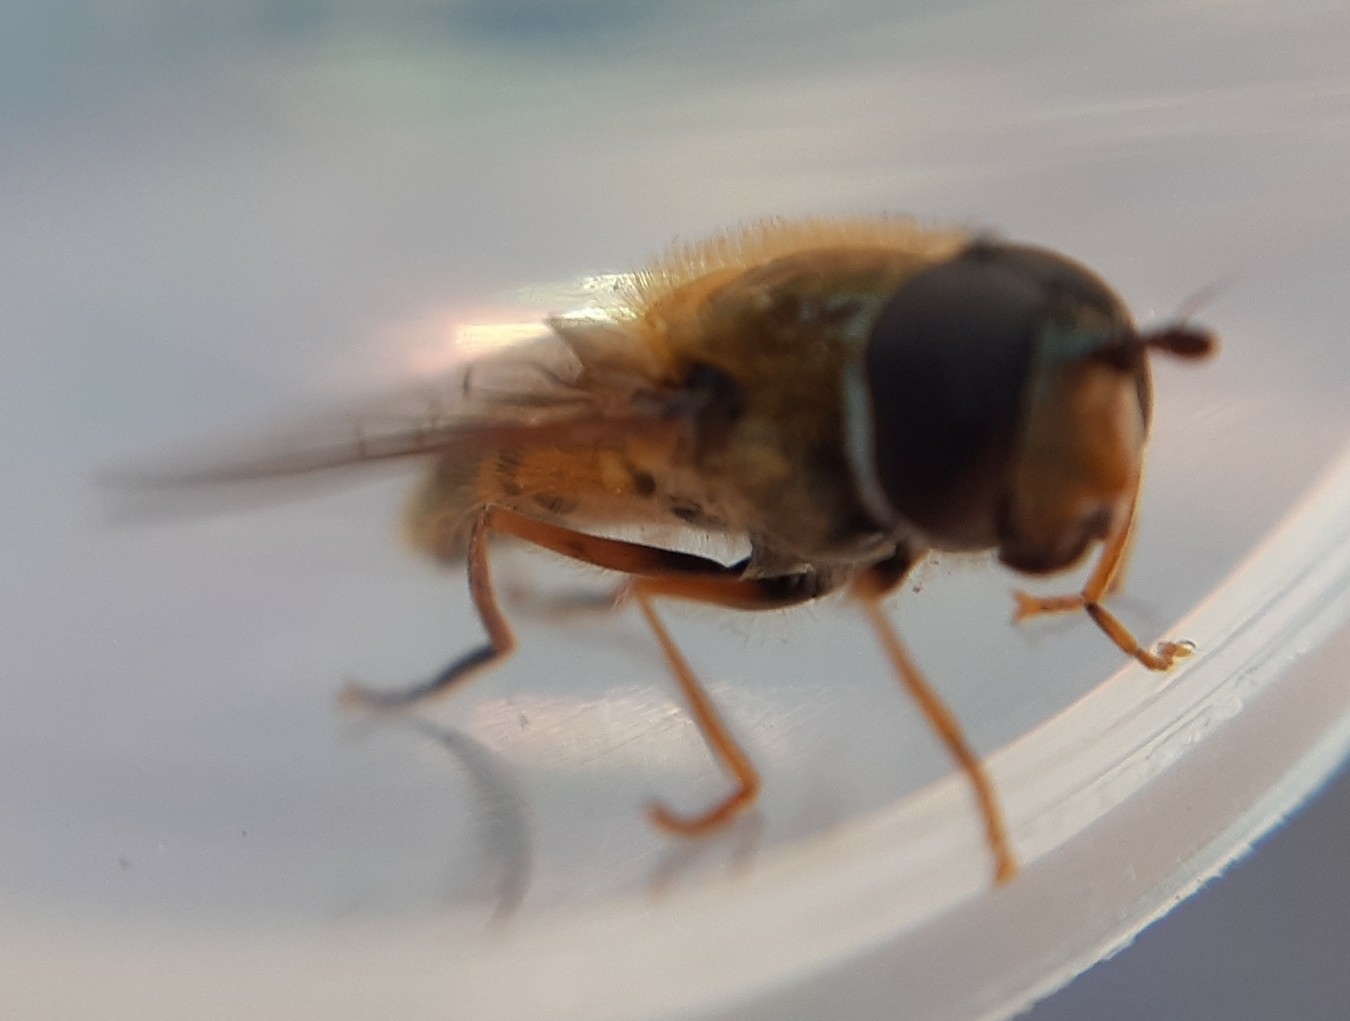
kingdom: Animalia
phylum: Arthropoda
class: Insecta
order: Diptera
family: Syrphidae
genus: Epistrophe
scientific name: Epistrophe eligans
